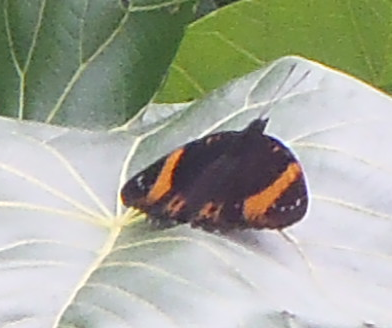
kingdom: Animalia
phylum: Arthropoda
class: Insecta
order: Lepidoptera
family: Nymphalidae
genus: Hypolimnas
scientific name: Hypolimnas octocula
